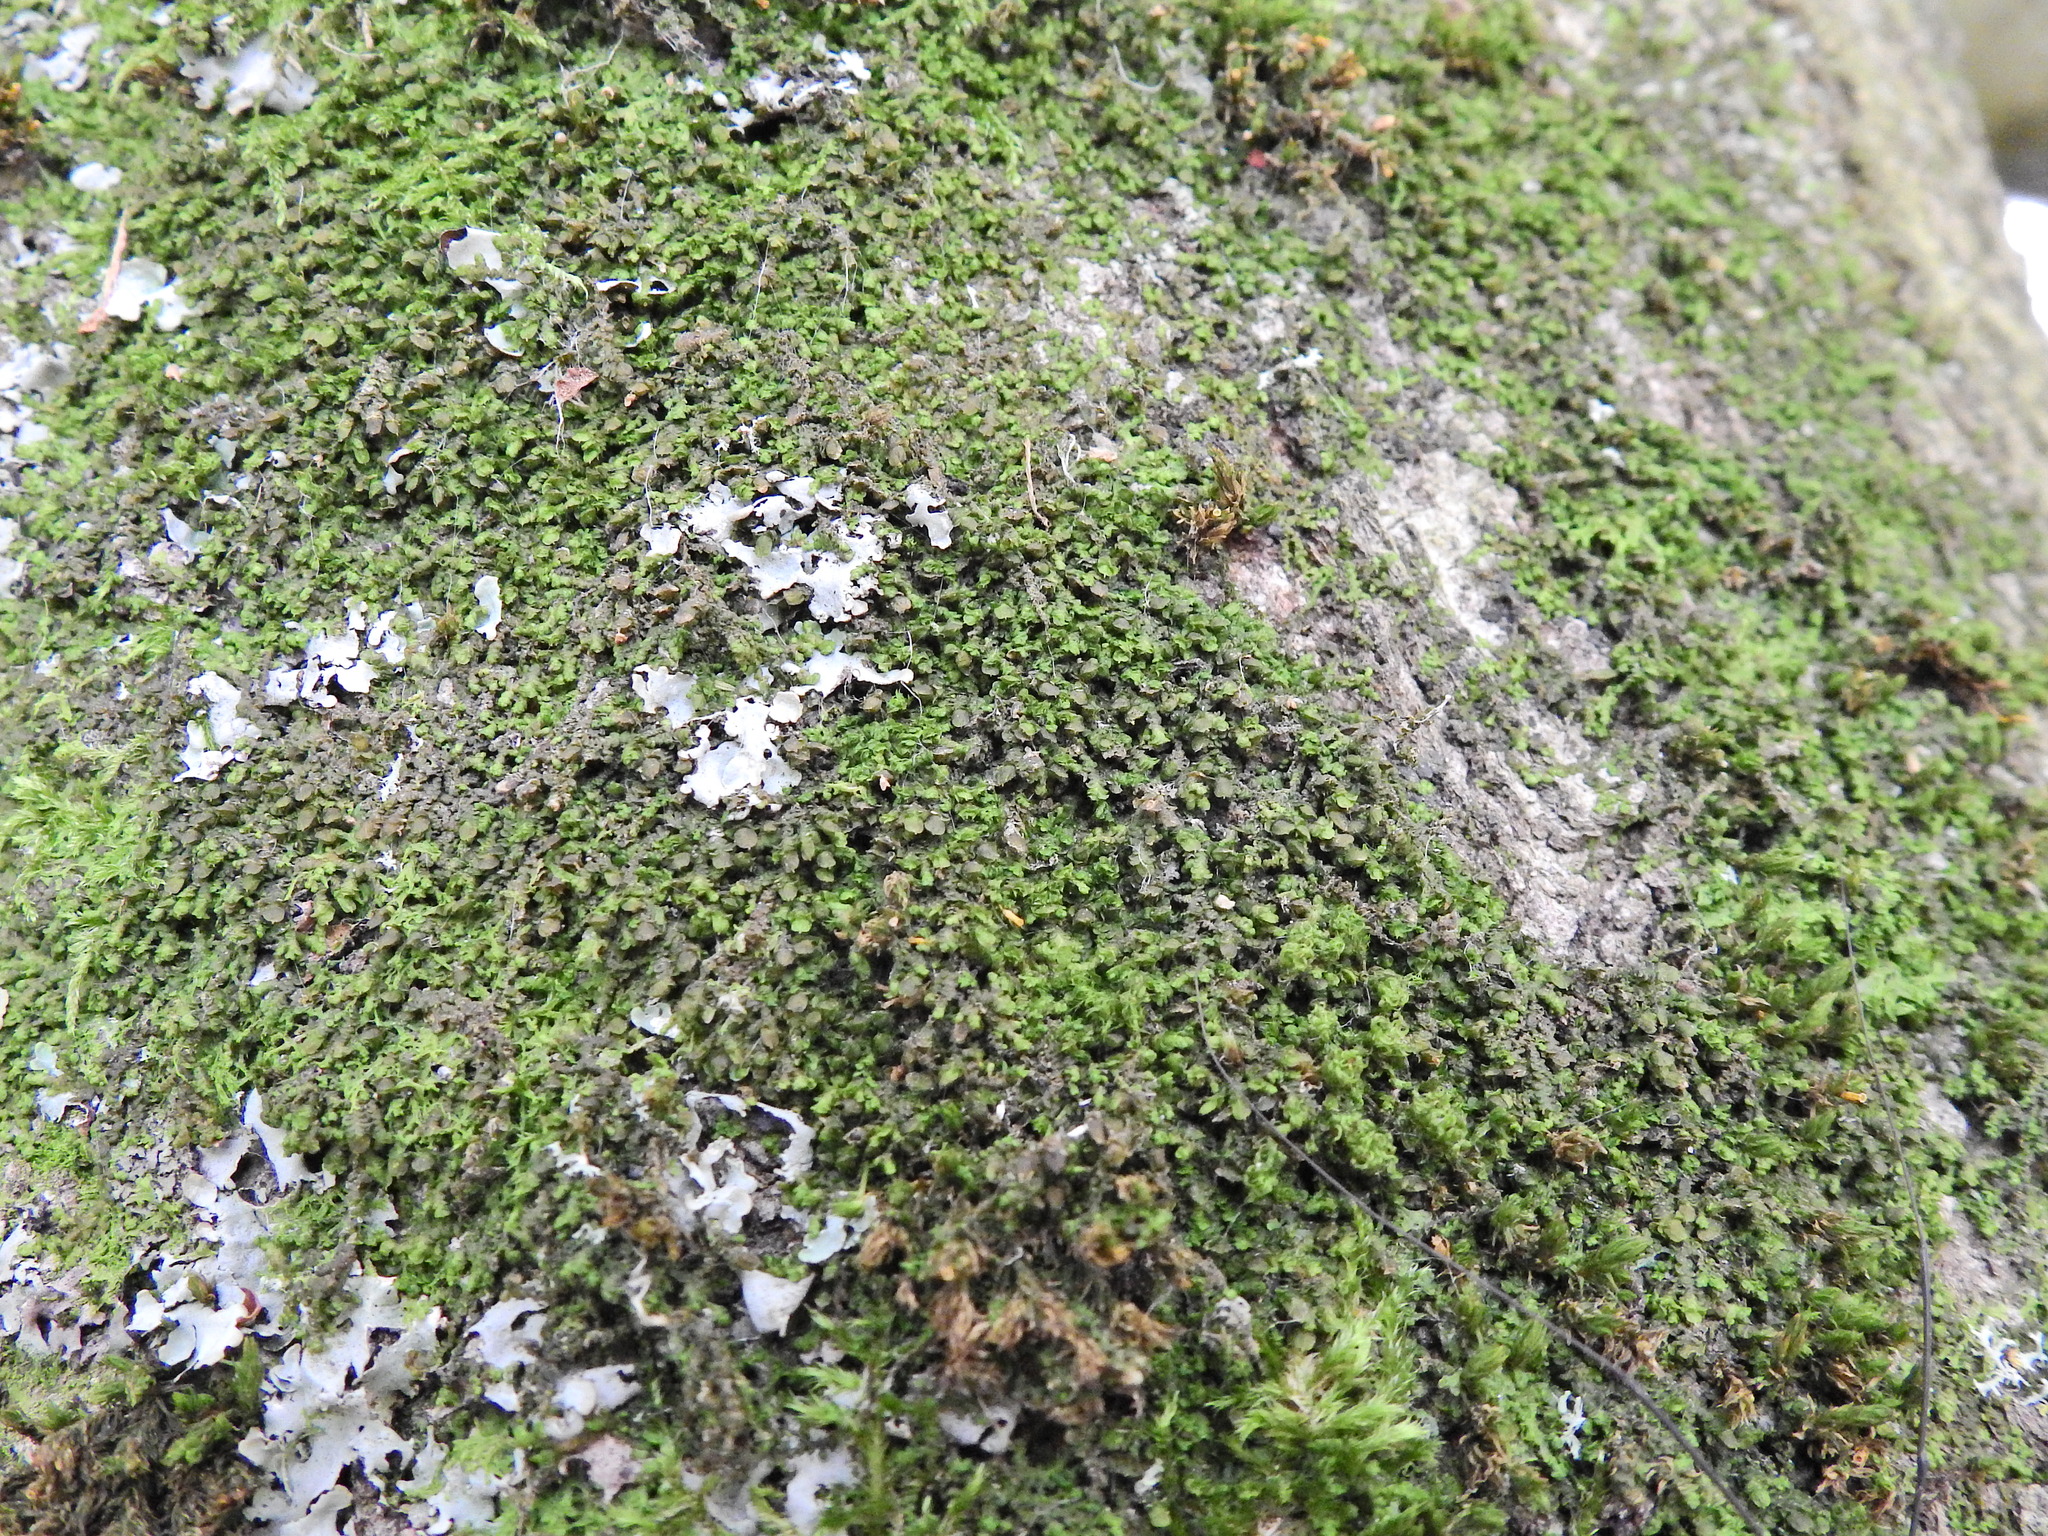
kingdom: Plantae
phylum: Marchantiophyta
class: Jungermanniopsida
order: Porellales
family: Frullaniaceae
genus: Frullania
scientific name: Frullania dilatata
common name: Dilated scalewort
